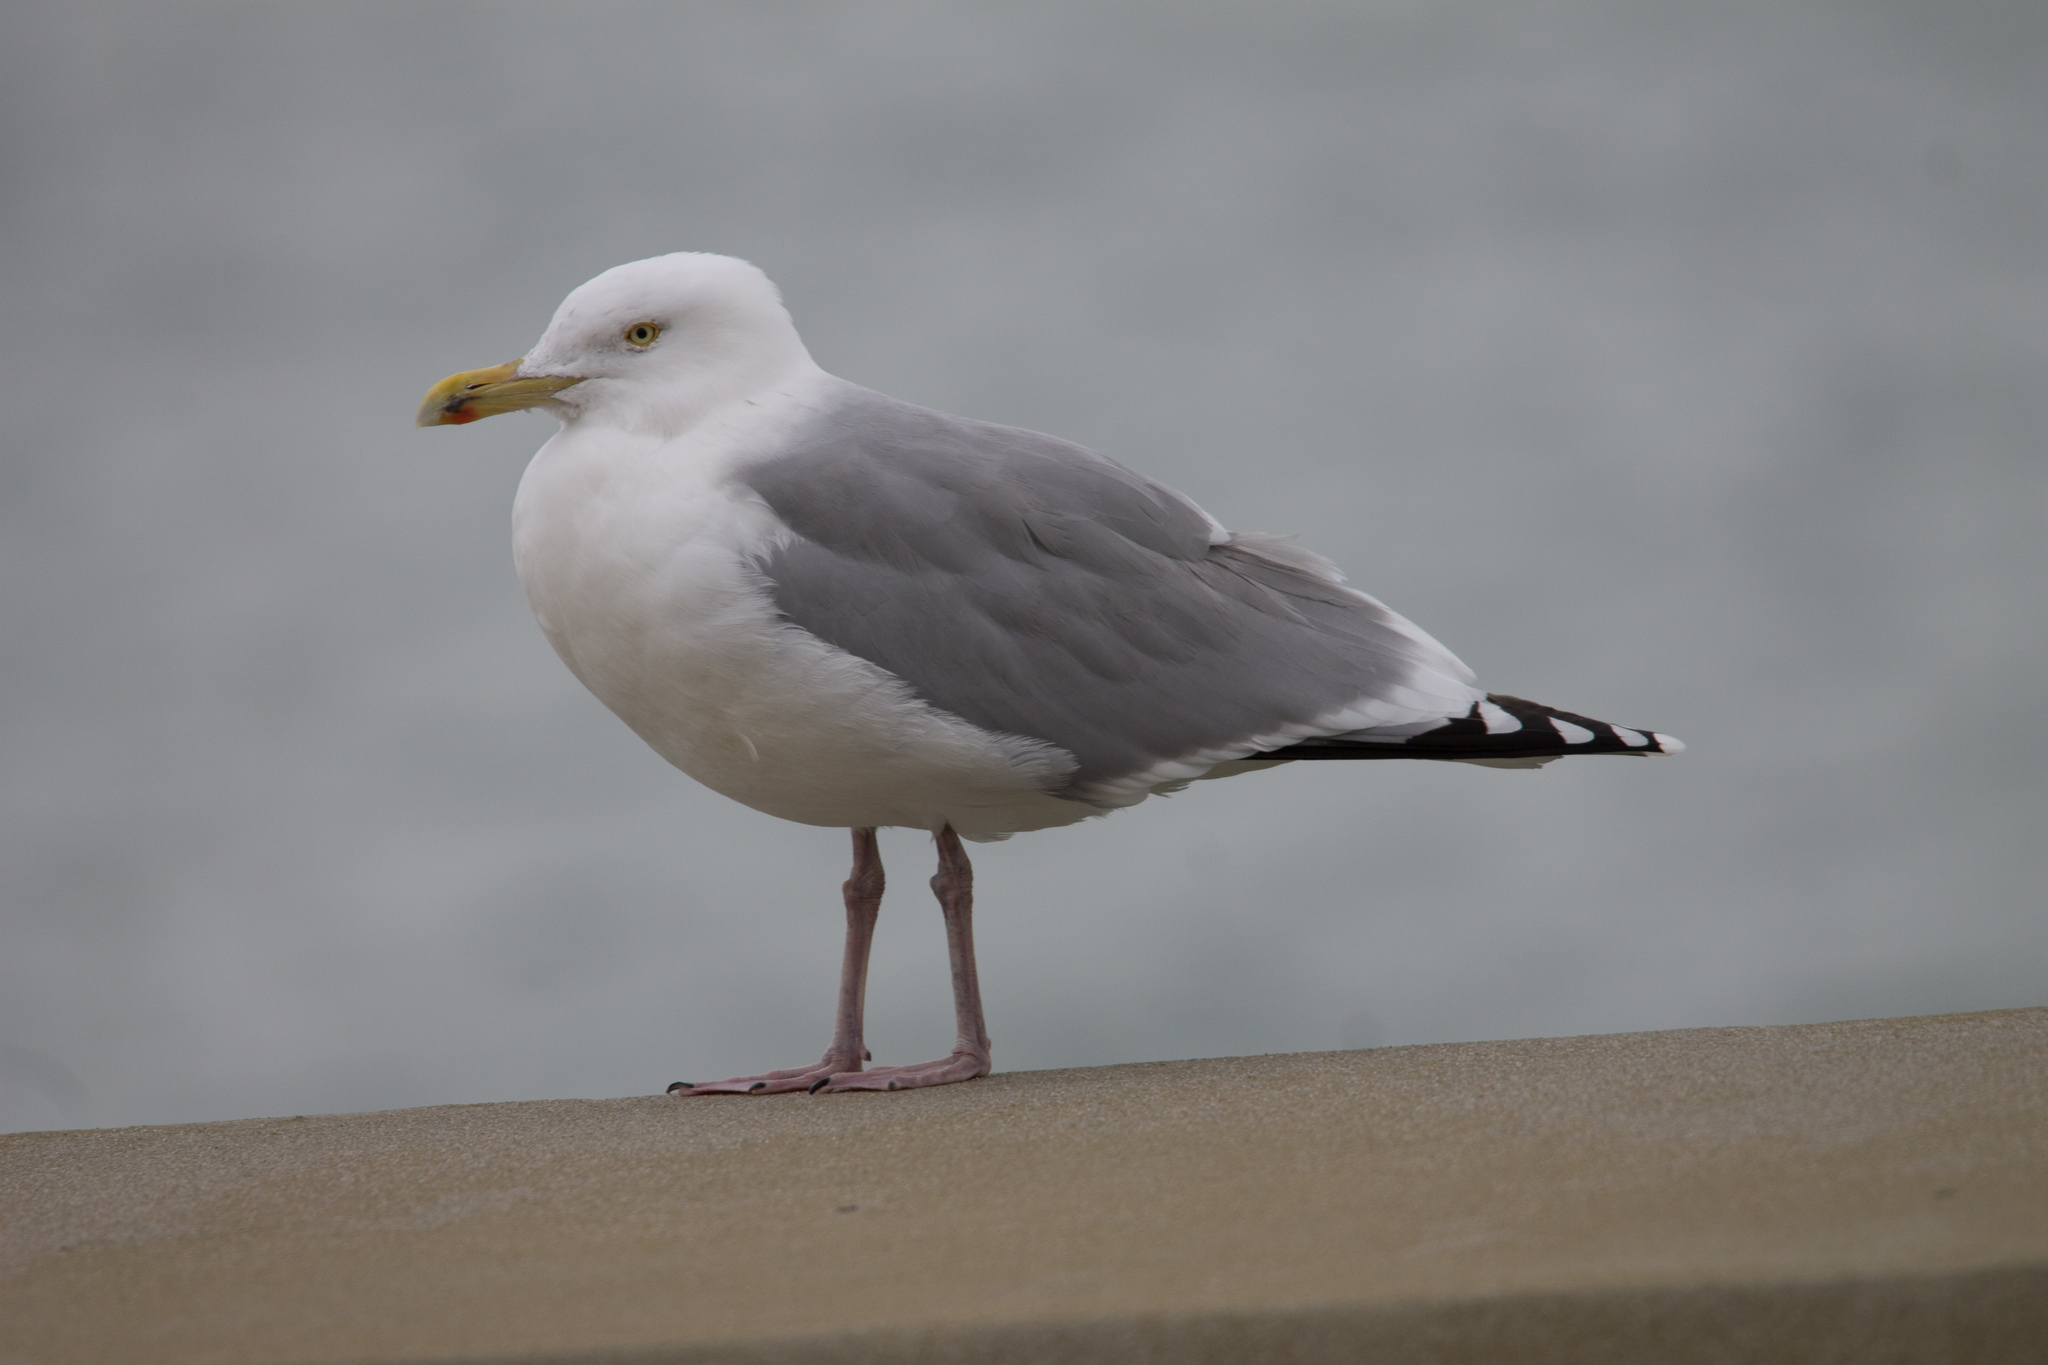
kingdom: Animalia
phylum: Chordata
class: Aves
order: Charadriiformes
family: Laridae
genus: Larus
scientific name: Larus argentatus
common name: Herring gull
